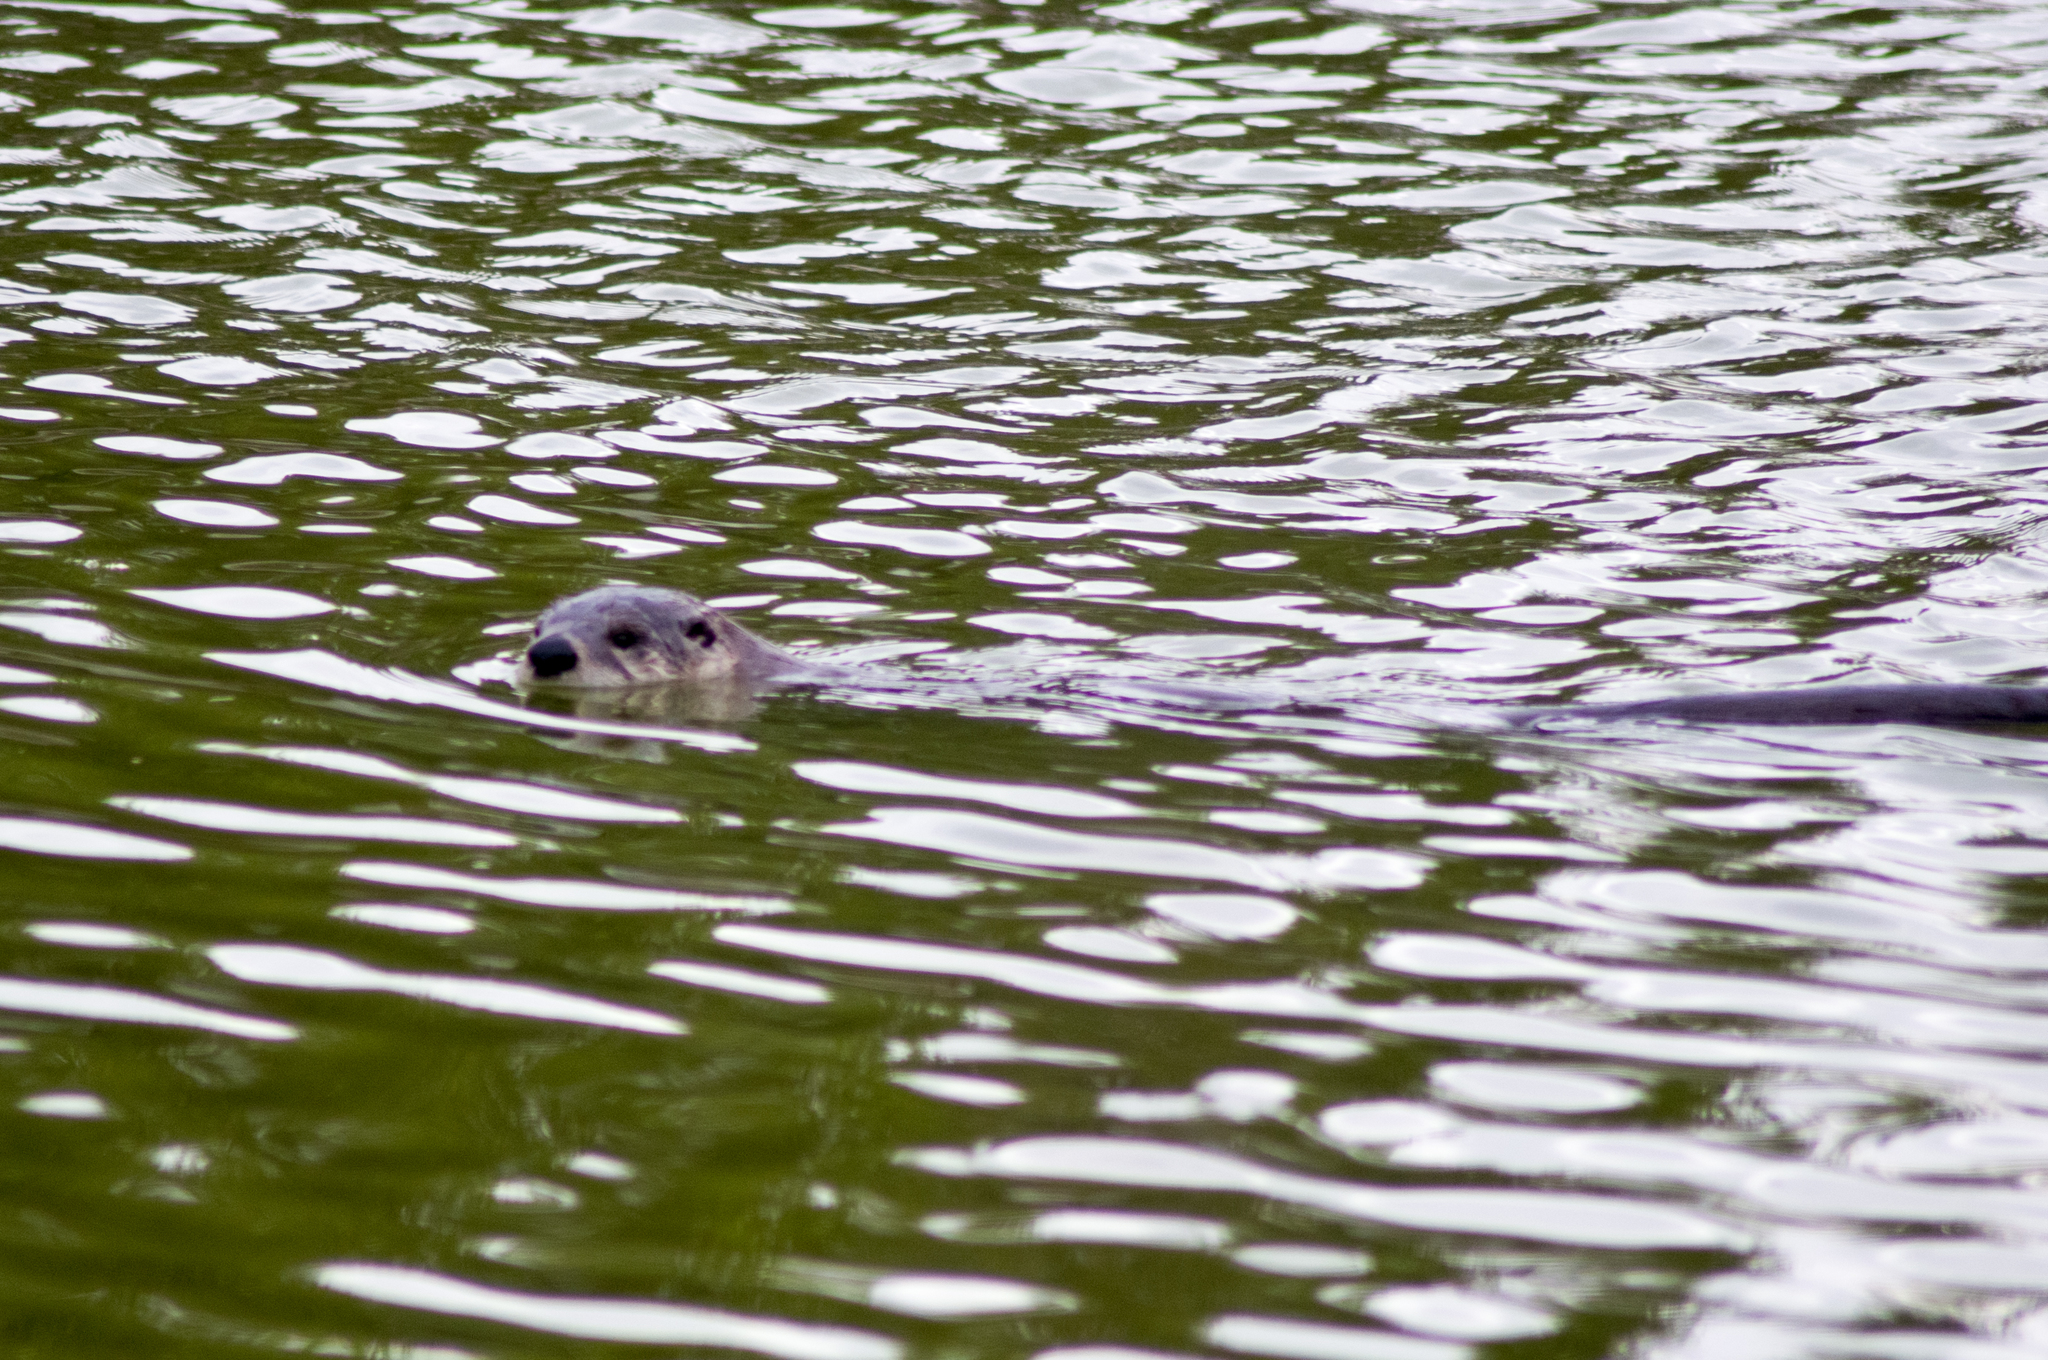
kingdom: Animalia
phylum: Chordata
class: Mammalia
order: Carnivora
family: Mustelidae
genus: Lontra
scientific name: Lontra canadensis
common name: North american river otter
